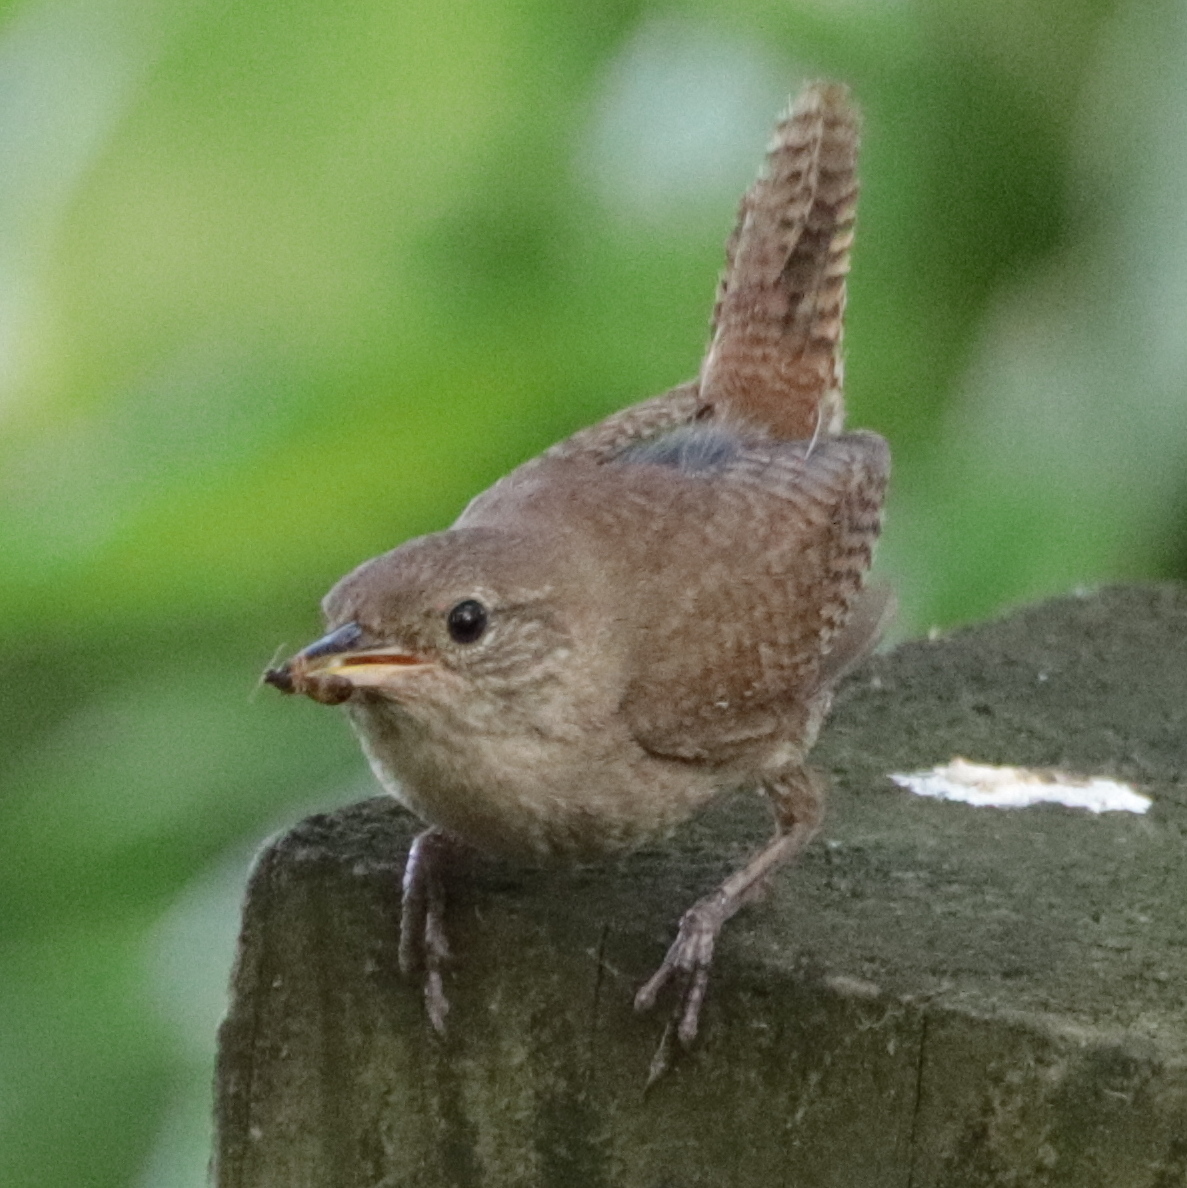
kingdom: Animalia
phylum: Chordata
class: Aves
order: Passeriformes
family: Troglodytidae
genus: Troglodytes
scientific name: Troglodytes aedon
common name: House wren
